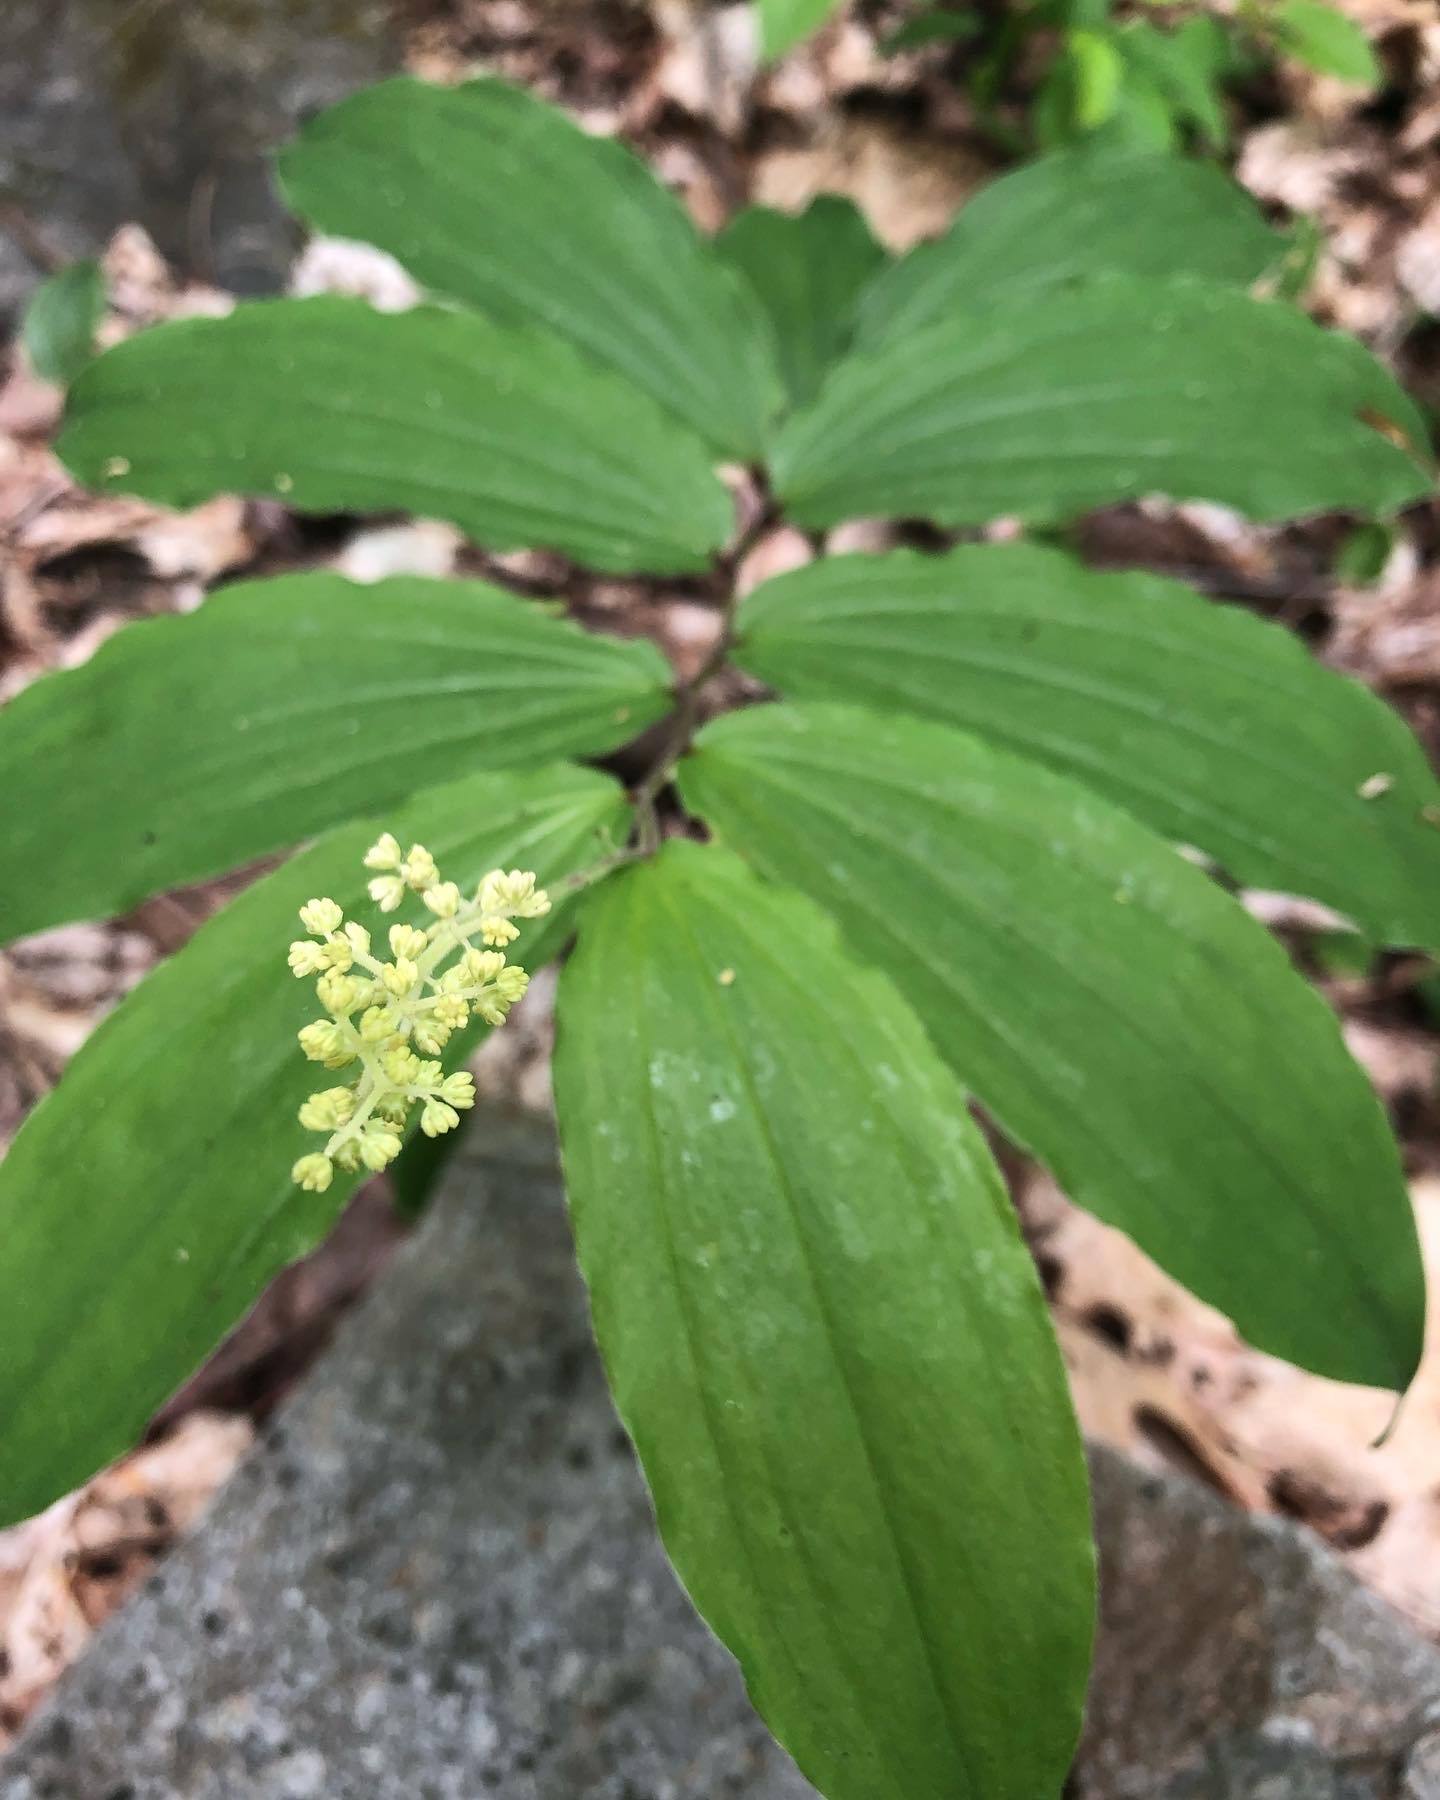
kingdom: Plantae
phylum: Tracheophyta
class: Liliopsida
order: Asparagales
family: Asparagaceae
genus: Maianthemum
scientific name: Maianthemum racemosum
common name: False spikenard
